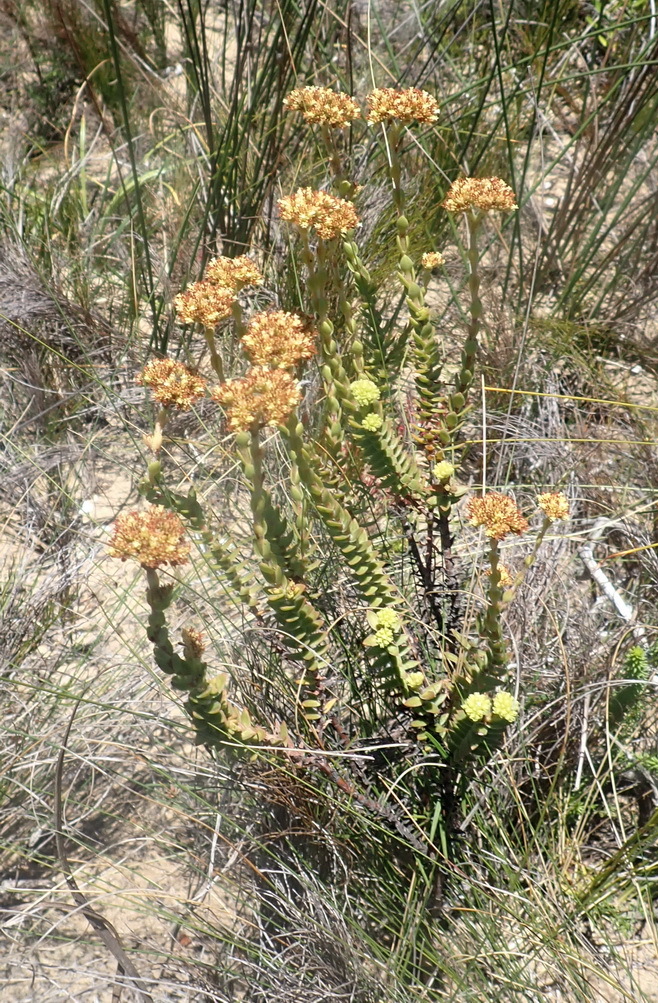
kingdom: Plantae
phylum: Tracheophyta
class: Magnoliopsida
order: Saxifragales
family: Crassulaceae
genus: Crassula
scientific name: Crassula subulata
